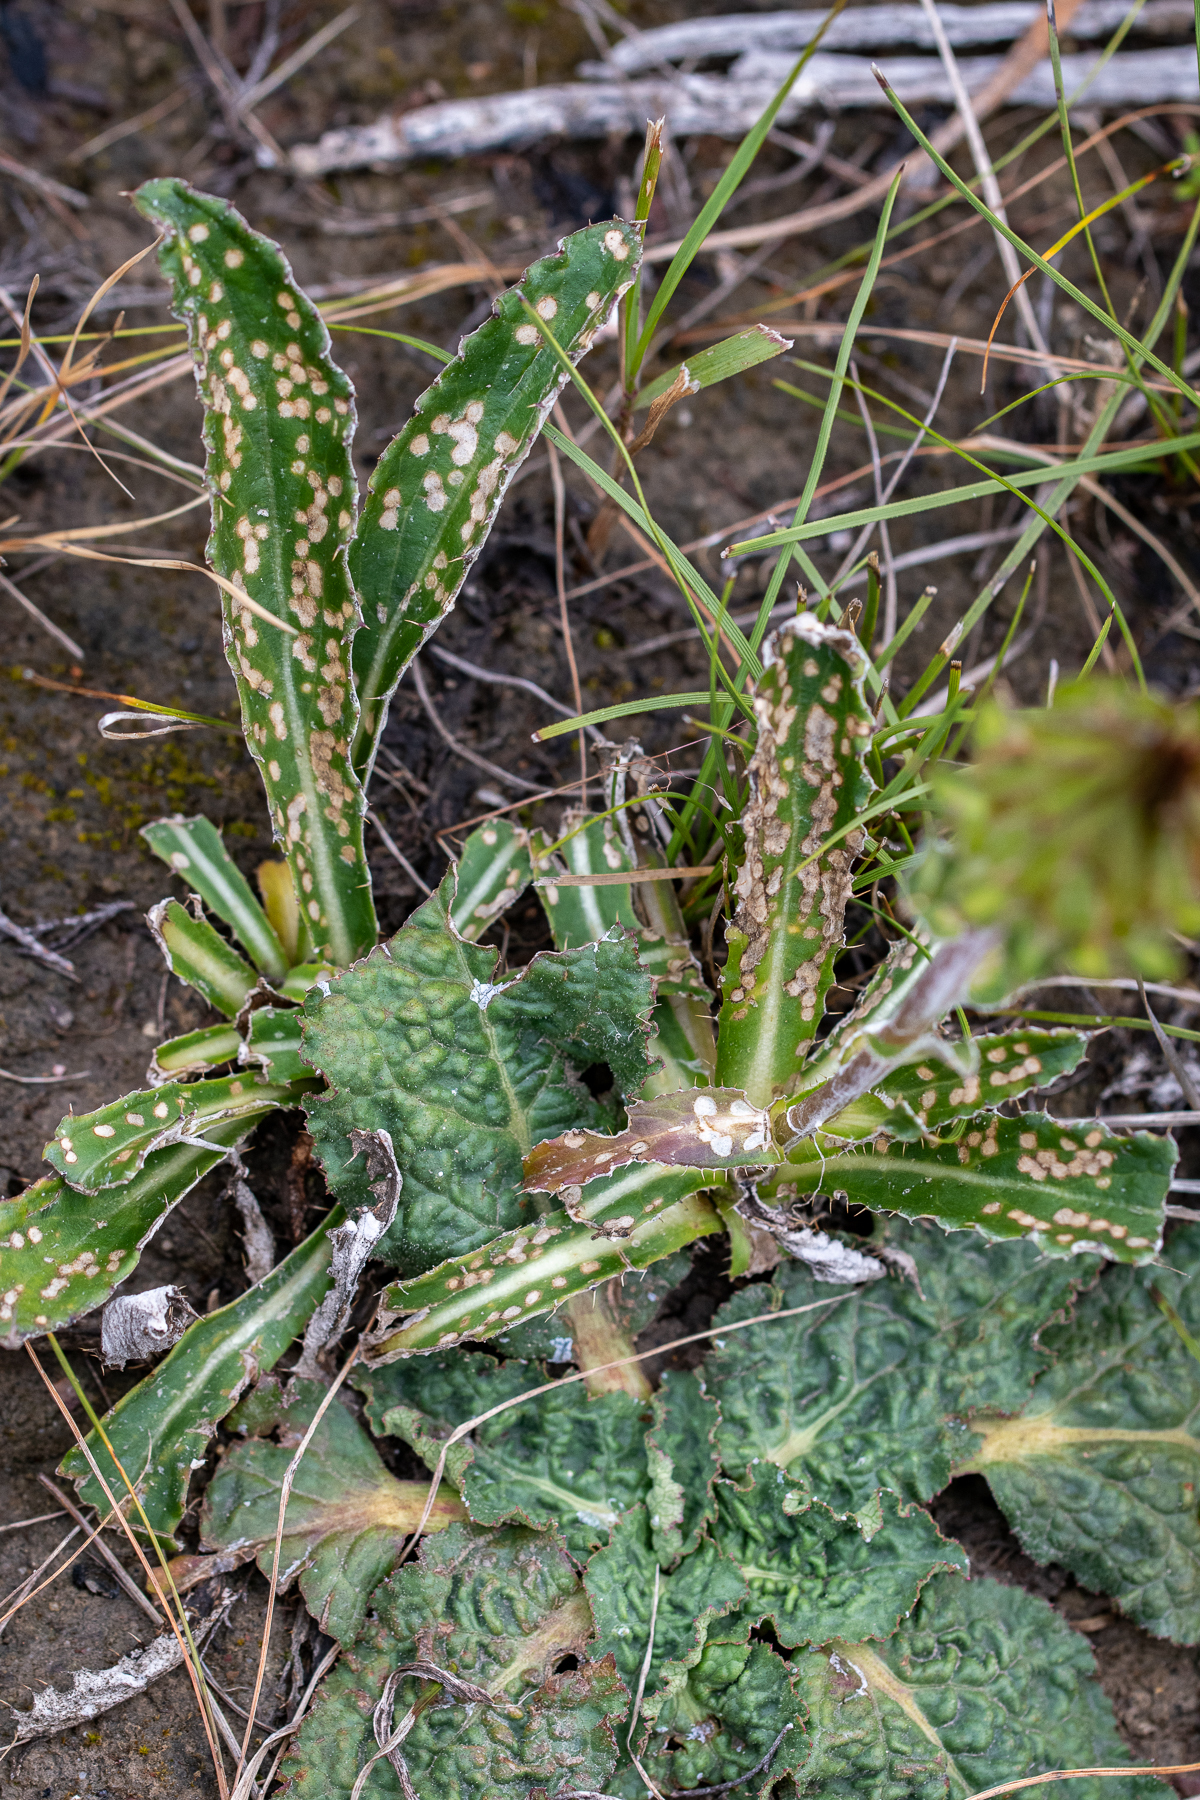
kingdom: Plantae
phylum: Tracheophyta
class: Magnoliopsida
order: Asterales
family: Asteraceae
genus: Berkheya
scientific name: Berkheya herbacea
